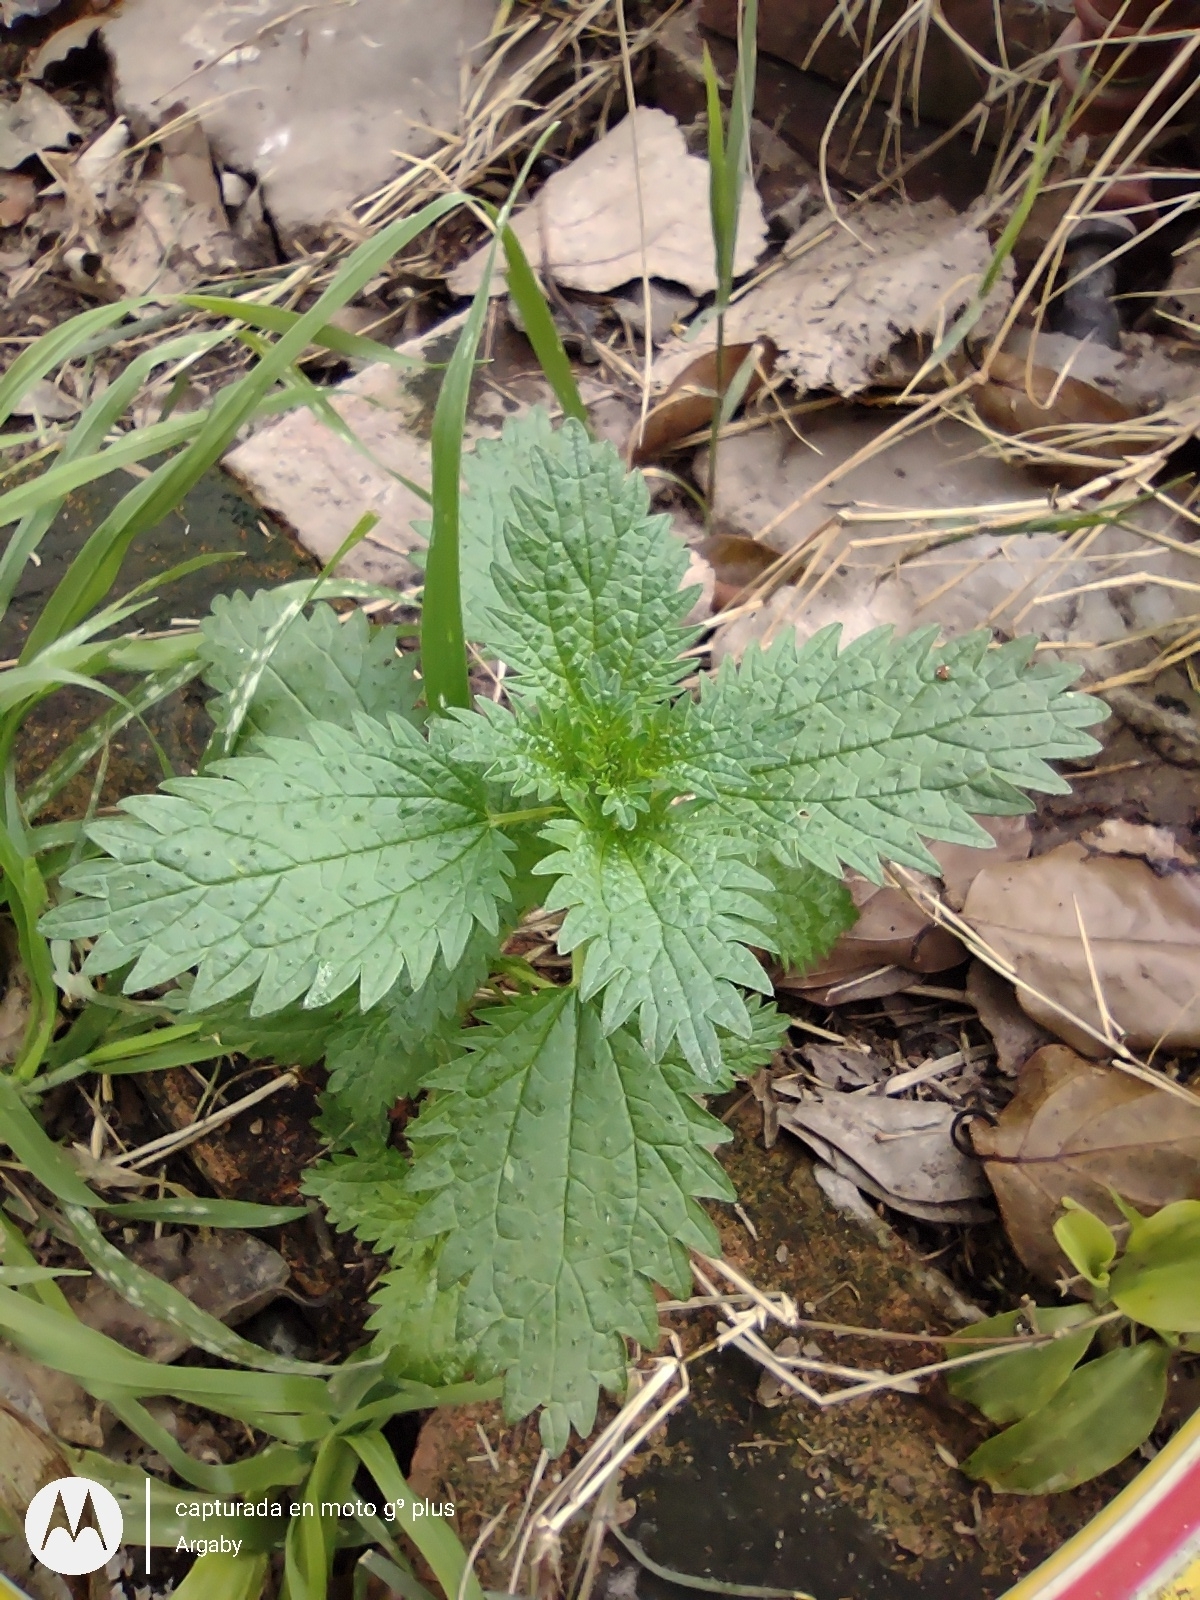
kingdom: Plantae
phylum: Tracheophyta
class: Magnoliopsida
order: Rosales
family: Urticaceae
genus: Urtica
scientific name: Urtica urens
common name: Dwarf nettle
